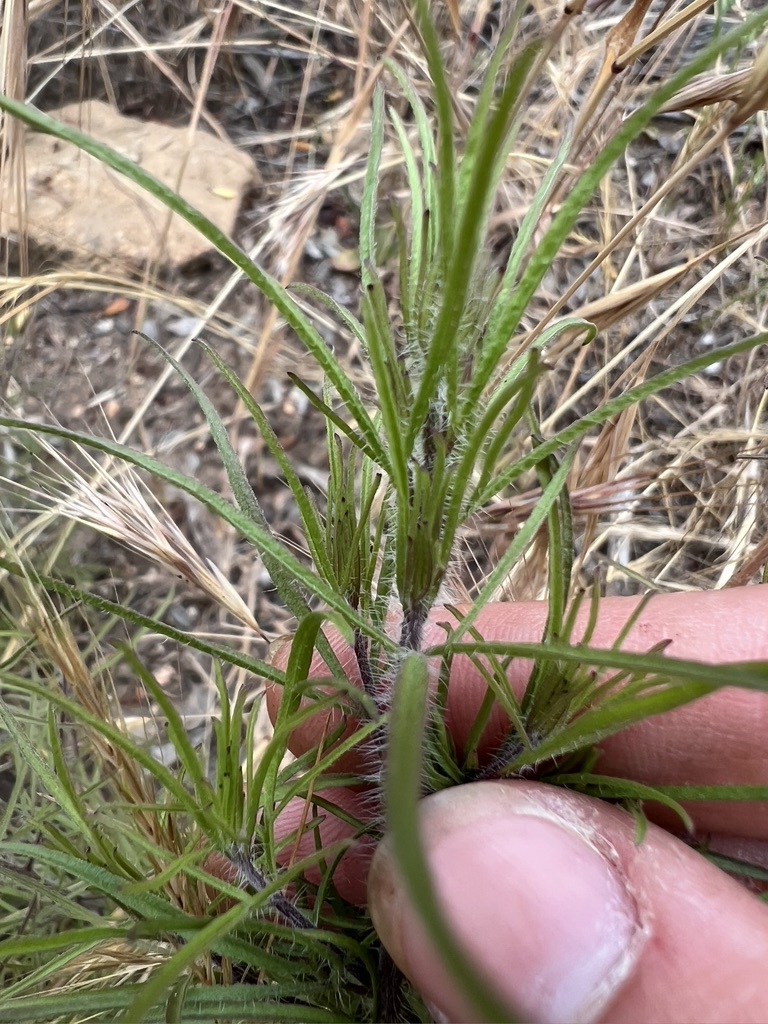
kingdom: Plantae
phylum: Tracheophyta
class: Magnoliopsida
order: Lamiales
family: Orobanchaceae
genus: Cordylanthus
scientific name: Cordylanthus rigidus
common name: Stiff-branch bird's-beak
